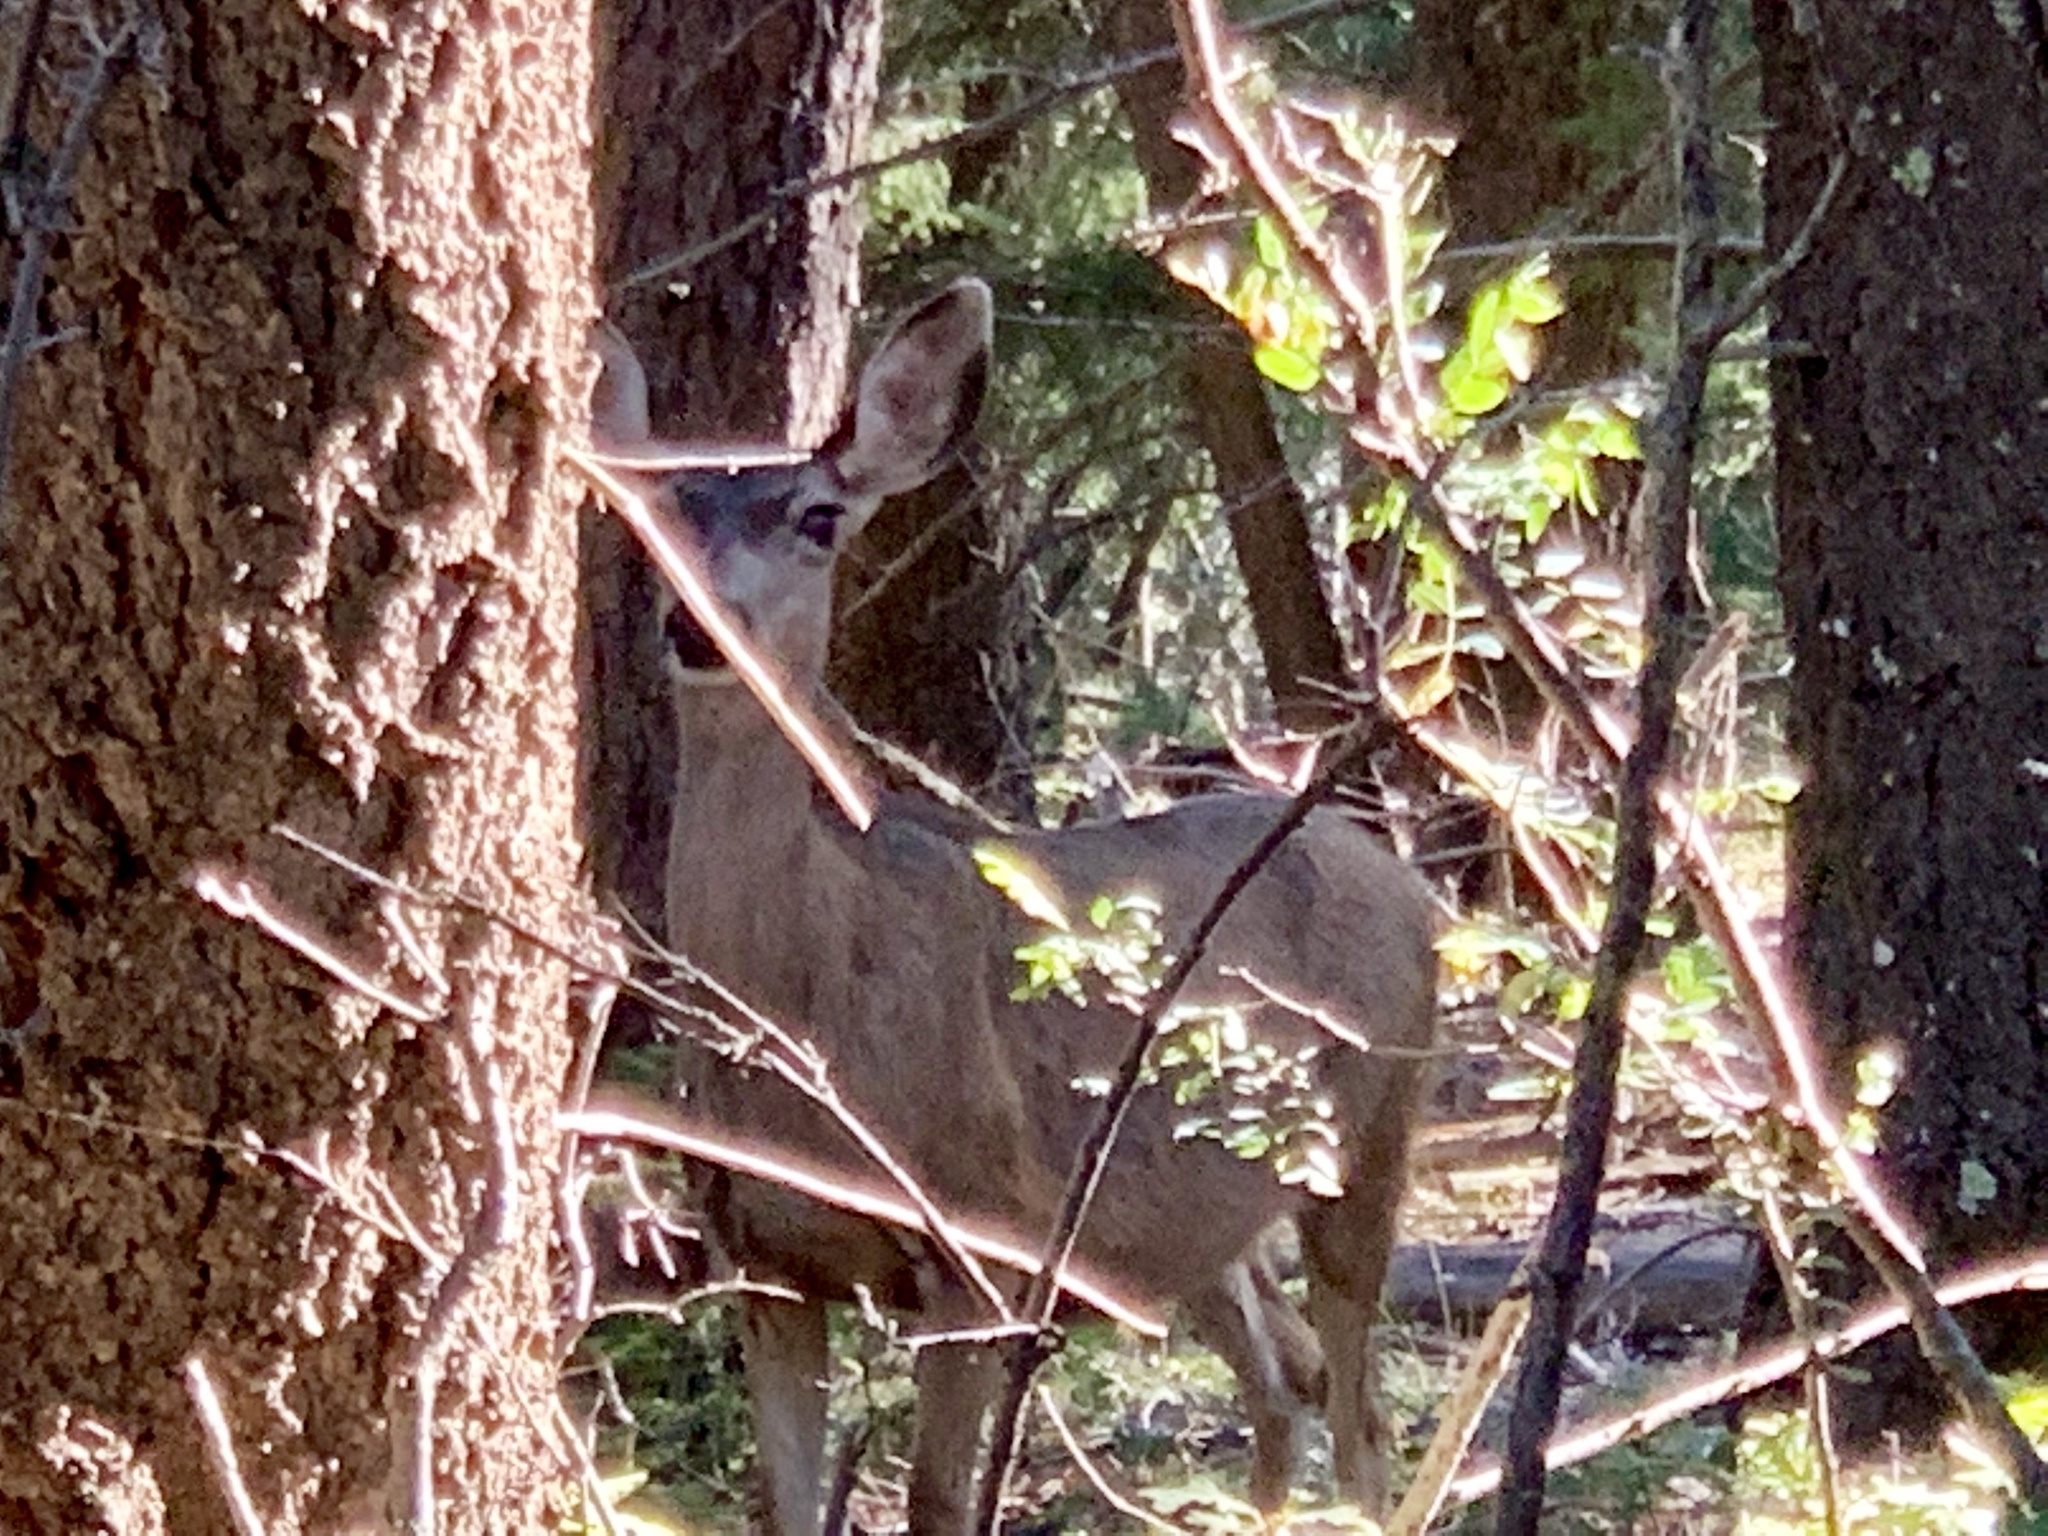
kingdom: Animalia
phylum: Chordata
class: Mammalia
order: Artiodactyla
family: Cervidae
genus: Odocoileus
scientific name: Odocoileus hemionus
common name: Mule deer
